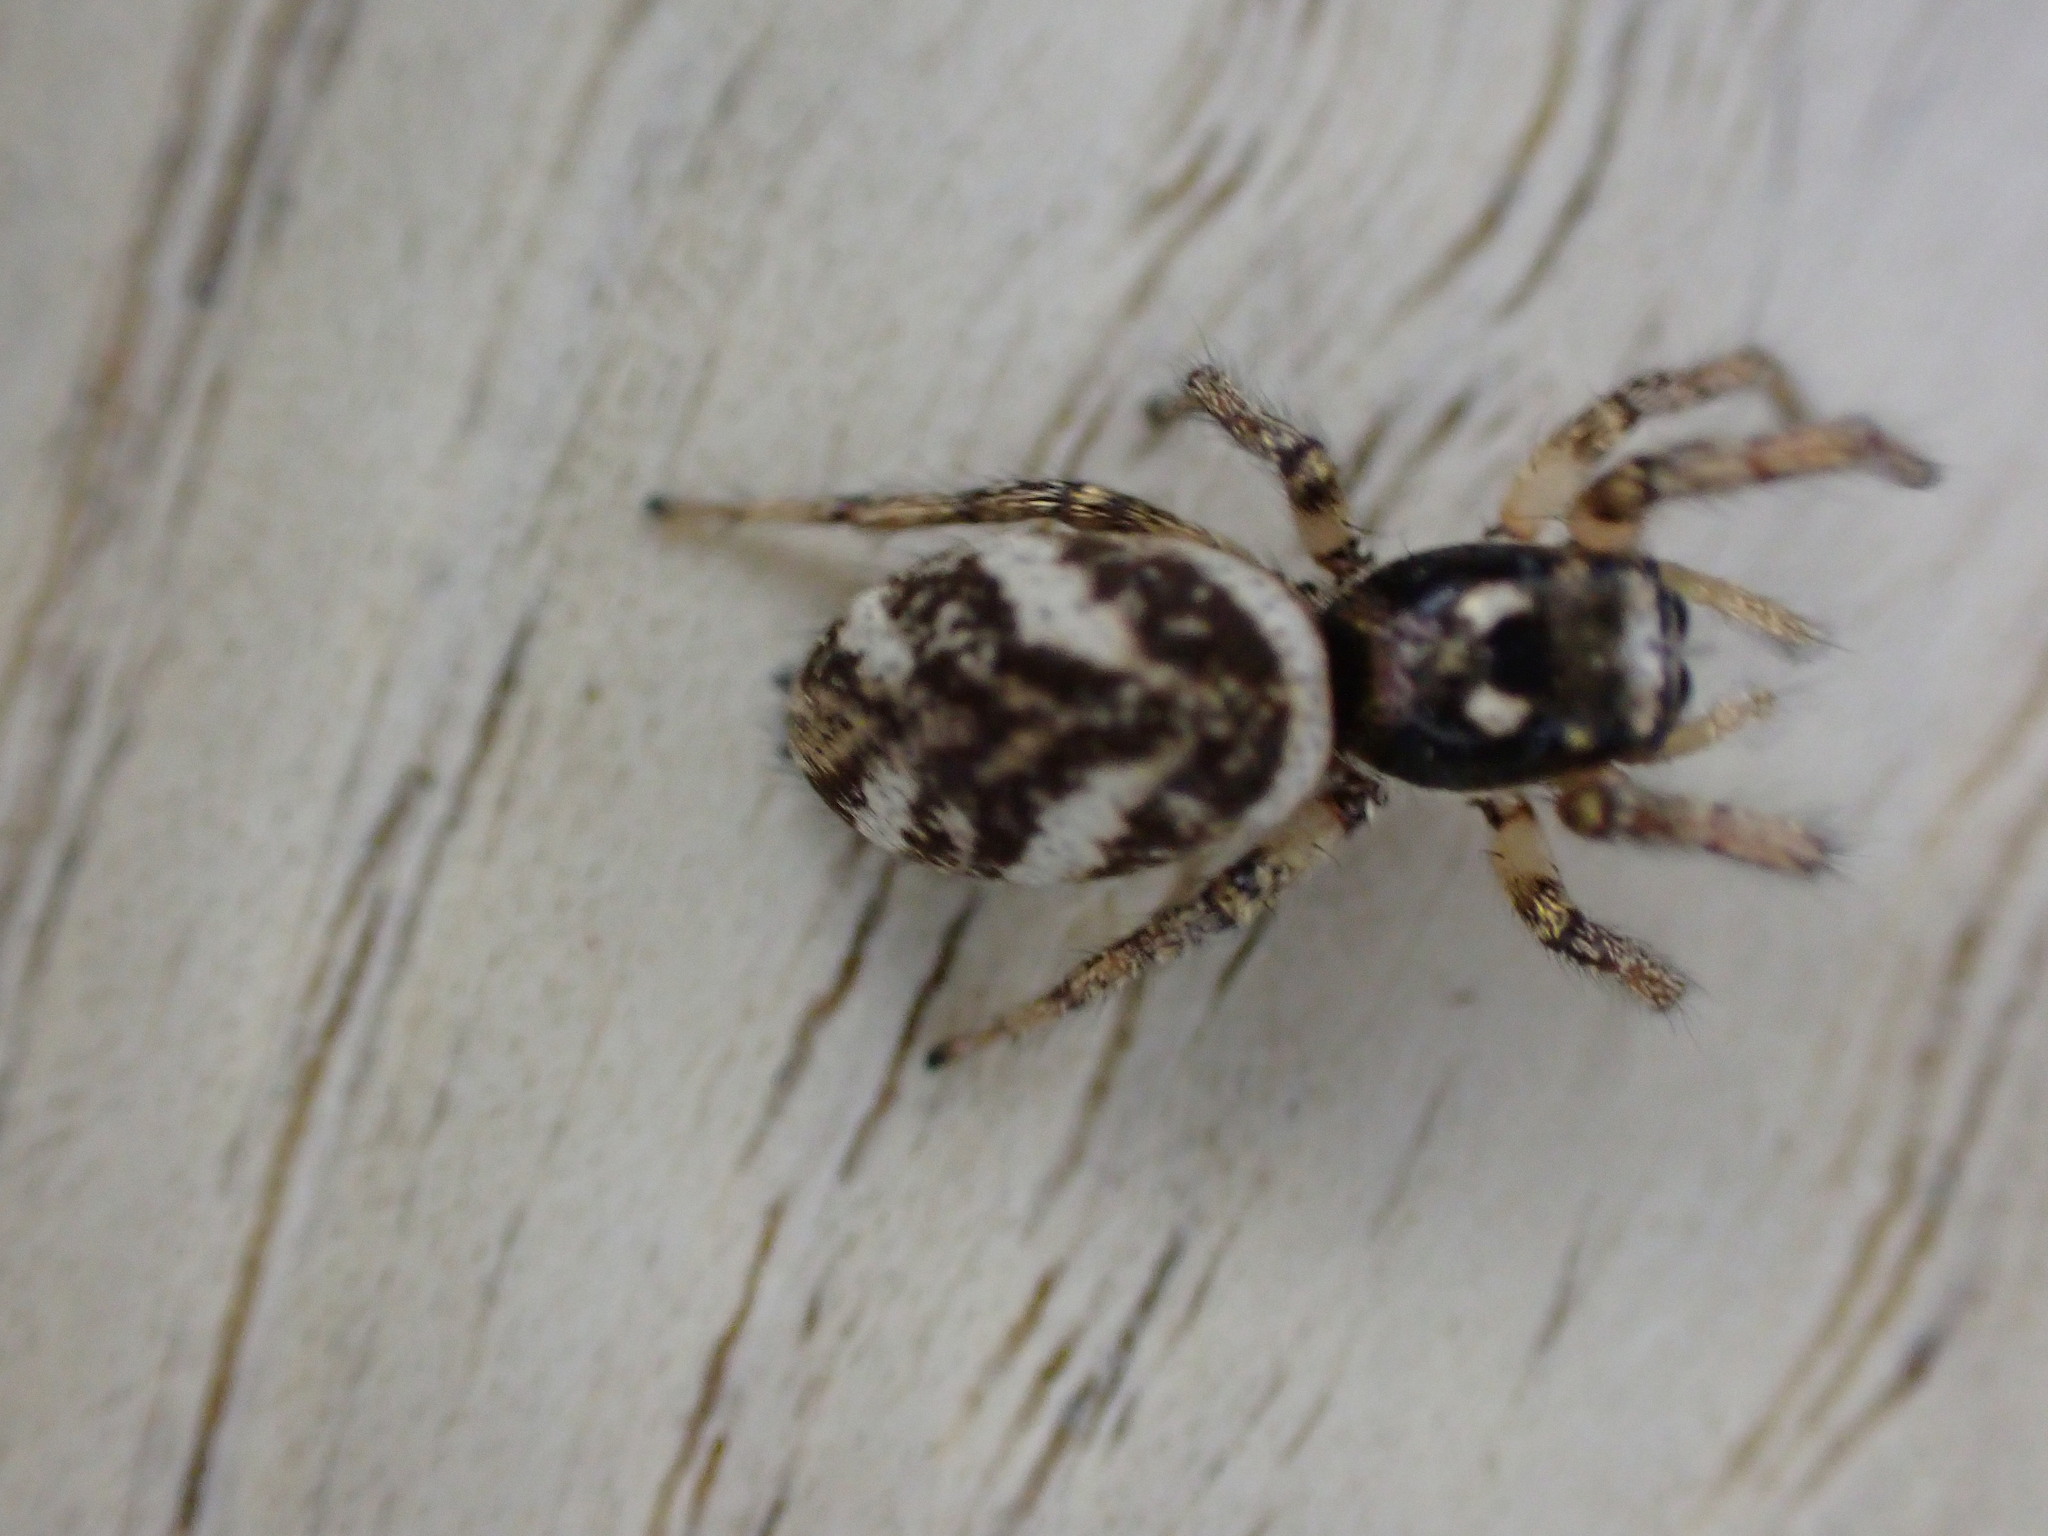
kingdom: Animalia
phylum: Arthropoda
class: Arachnida
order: Araneae
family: Salticidae
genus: Salticus
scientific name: Salticus scenicus
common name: Zebra jumper
